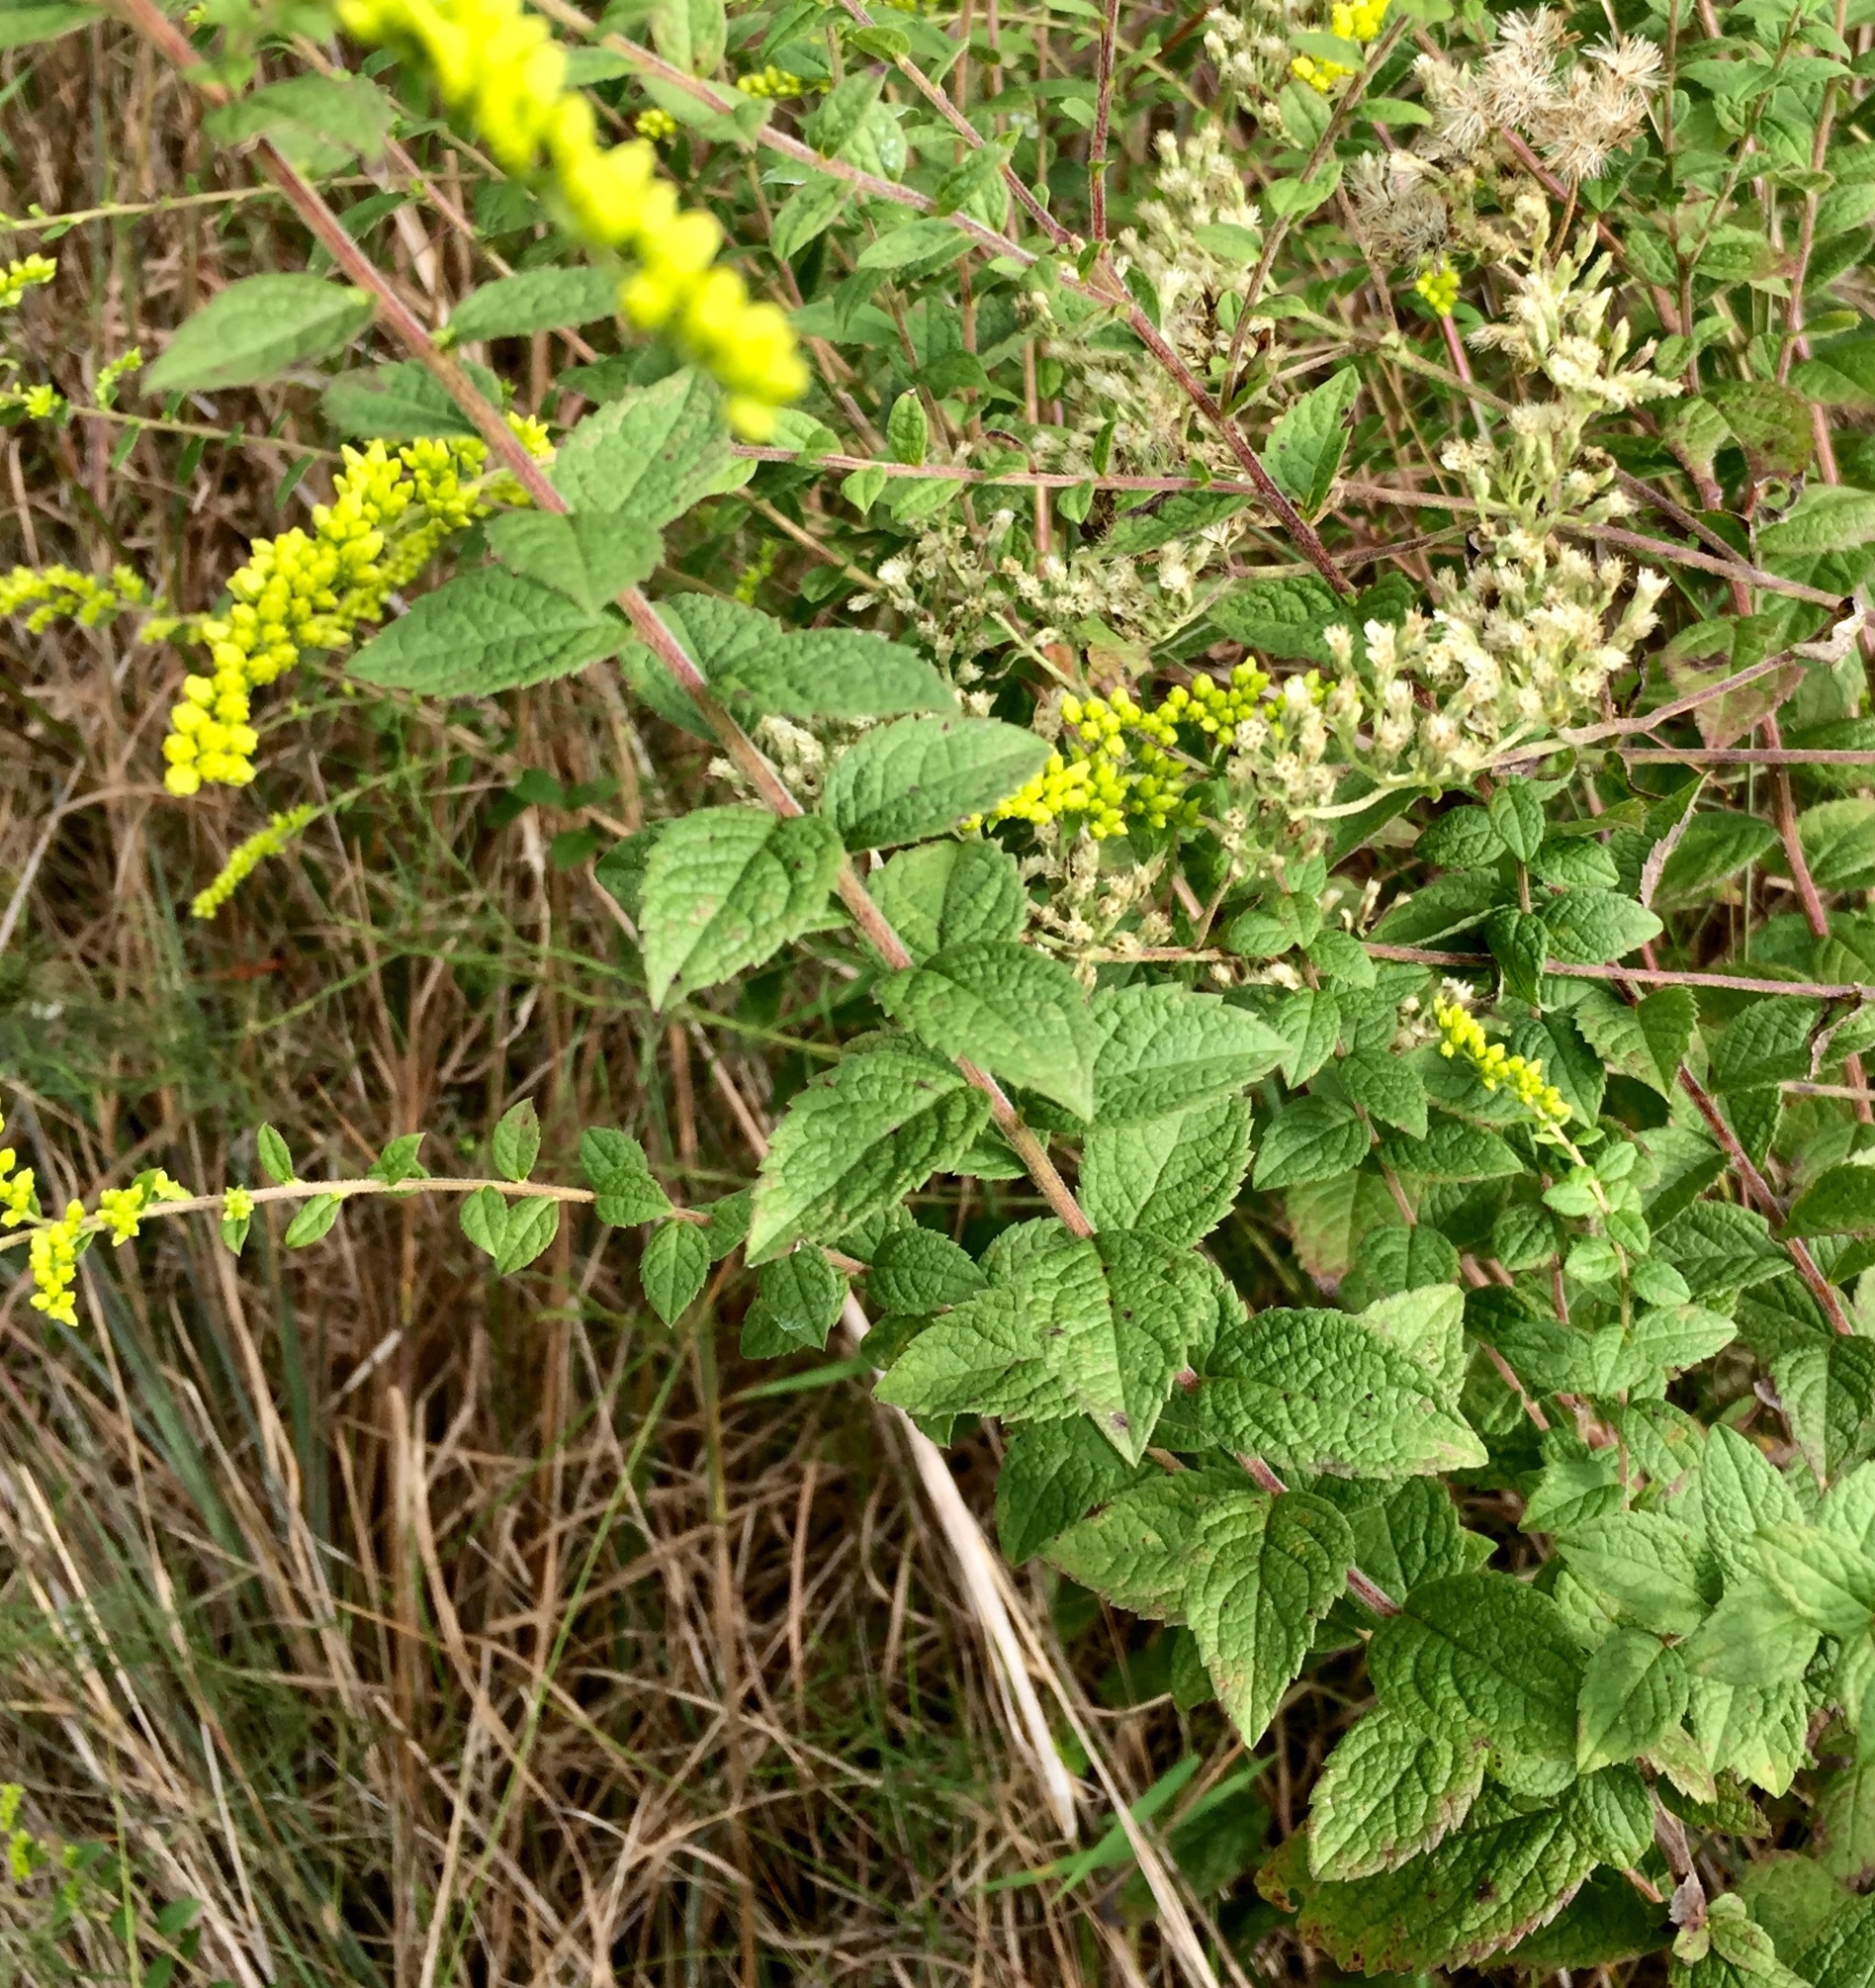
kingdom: Plantae
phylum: Tracheophyta
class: Magnoliopsida
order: Asterales
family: Asteraceae
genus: Solidago
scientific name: Solidago rugosa
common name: Rough-stemmed goldenrod
